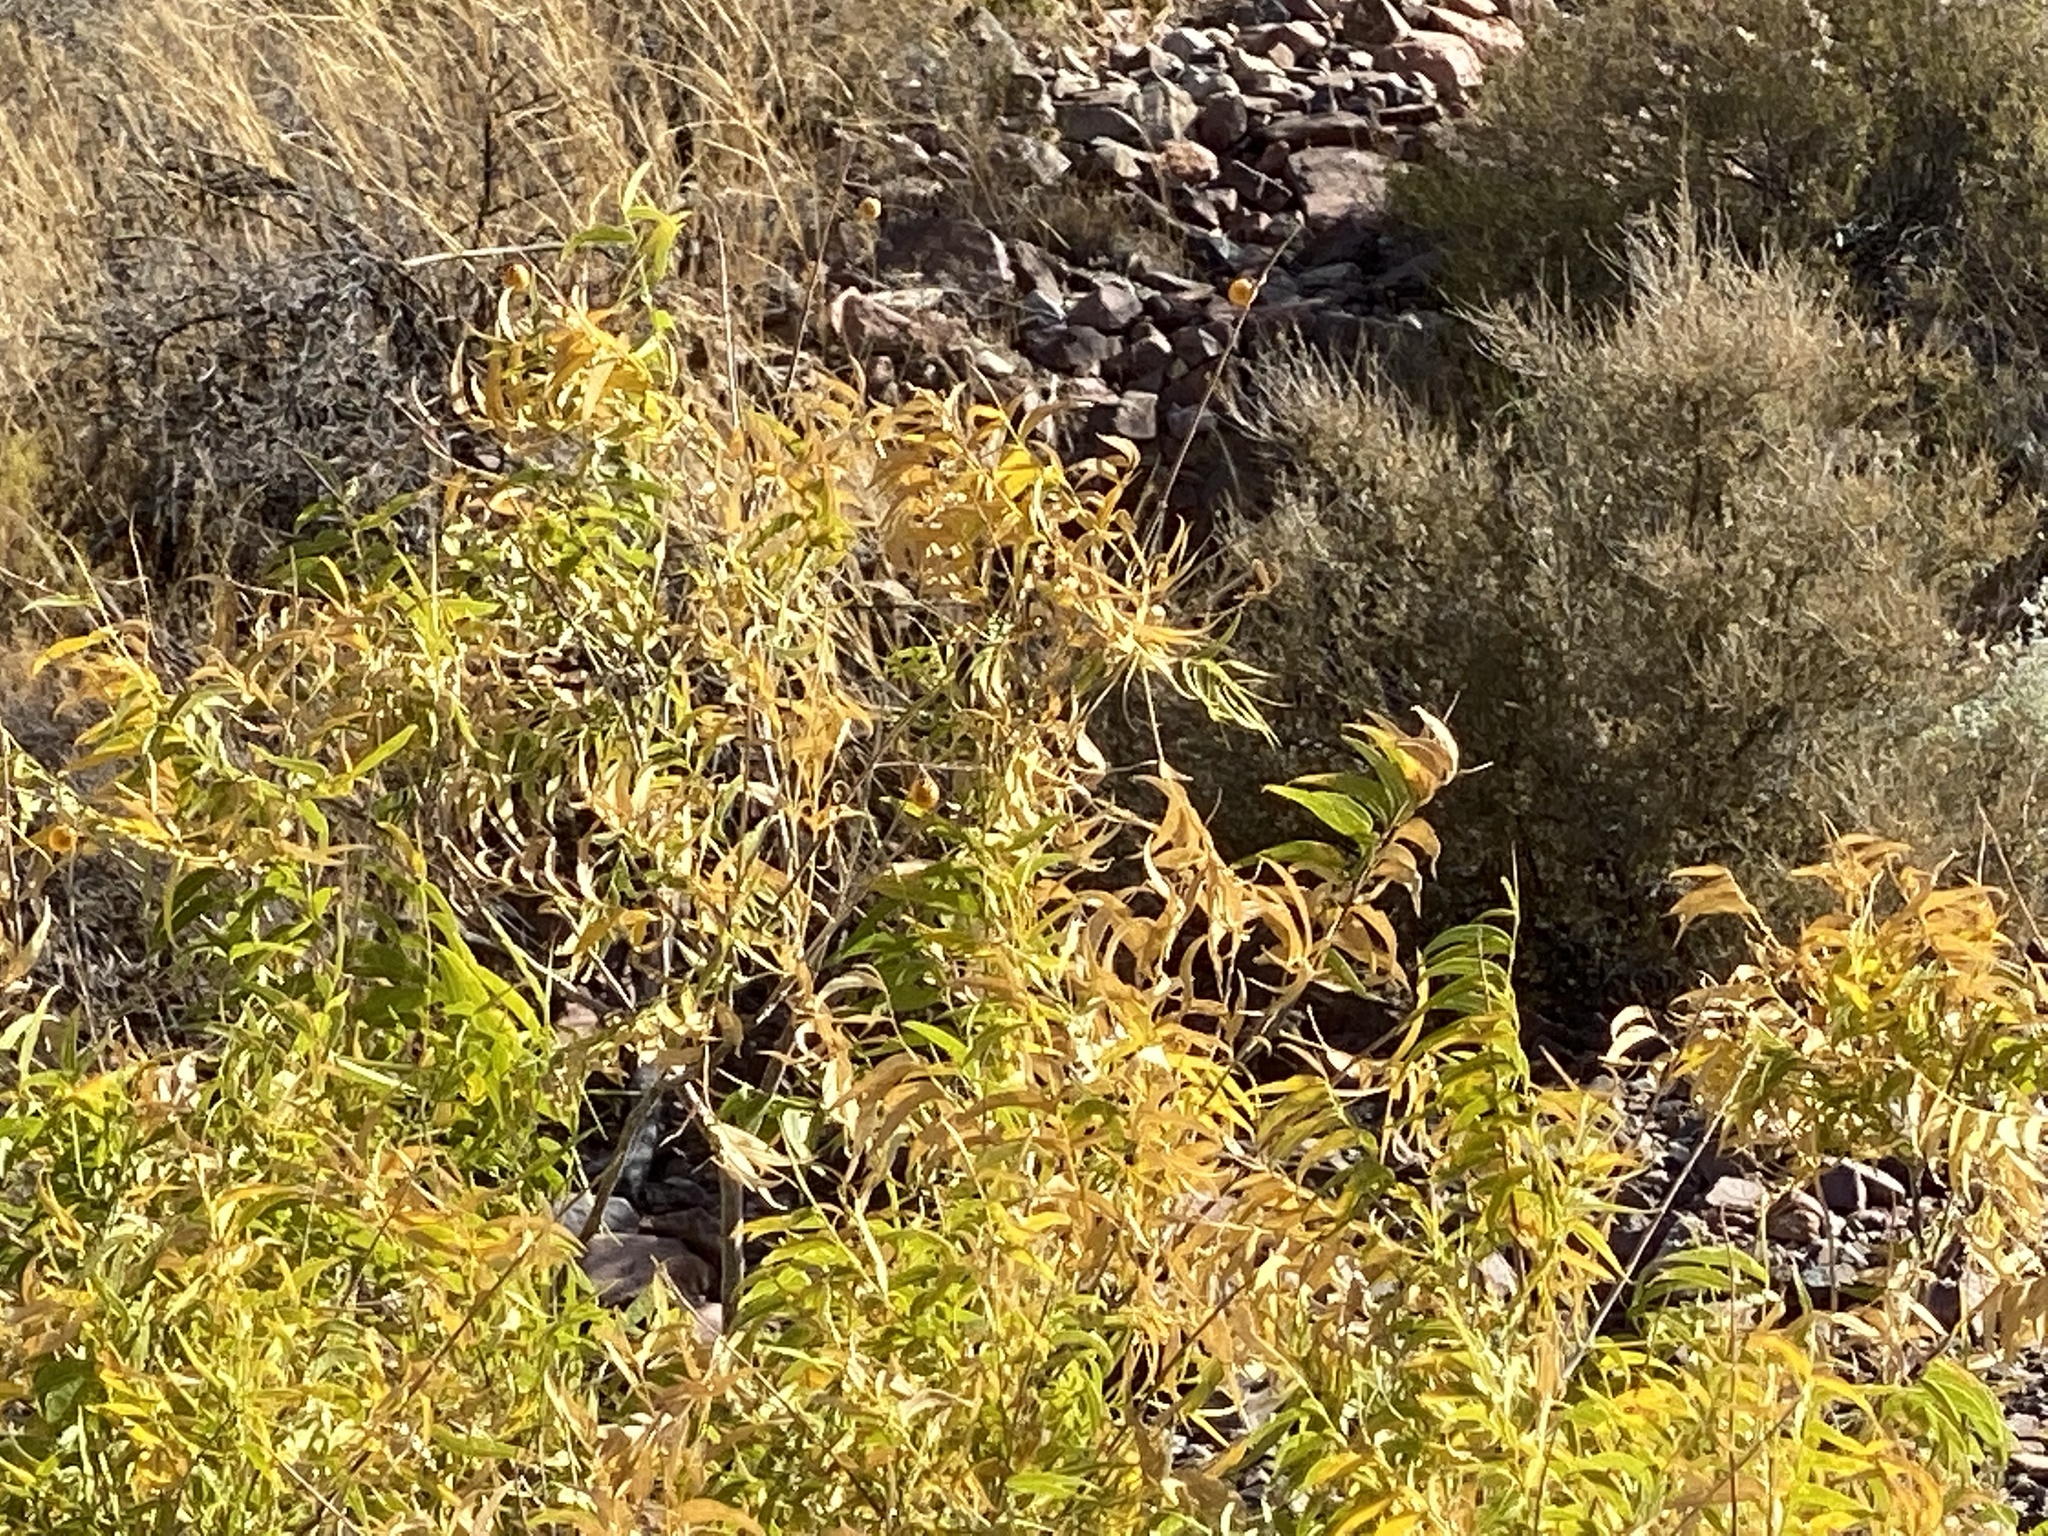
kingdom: Plantae
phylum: Tracheophyta
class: Magnoliopsida
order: Sapindales
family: Sapindaceae
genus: Sapindus
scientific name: Sapindus drummondii
